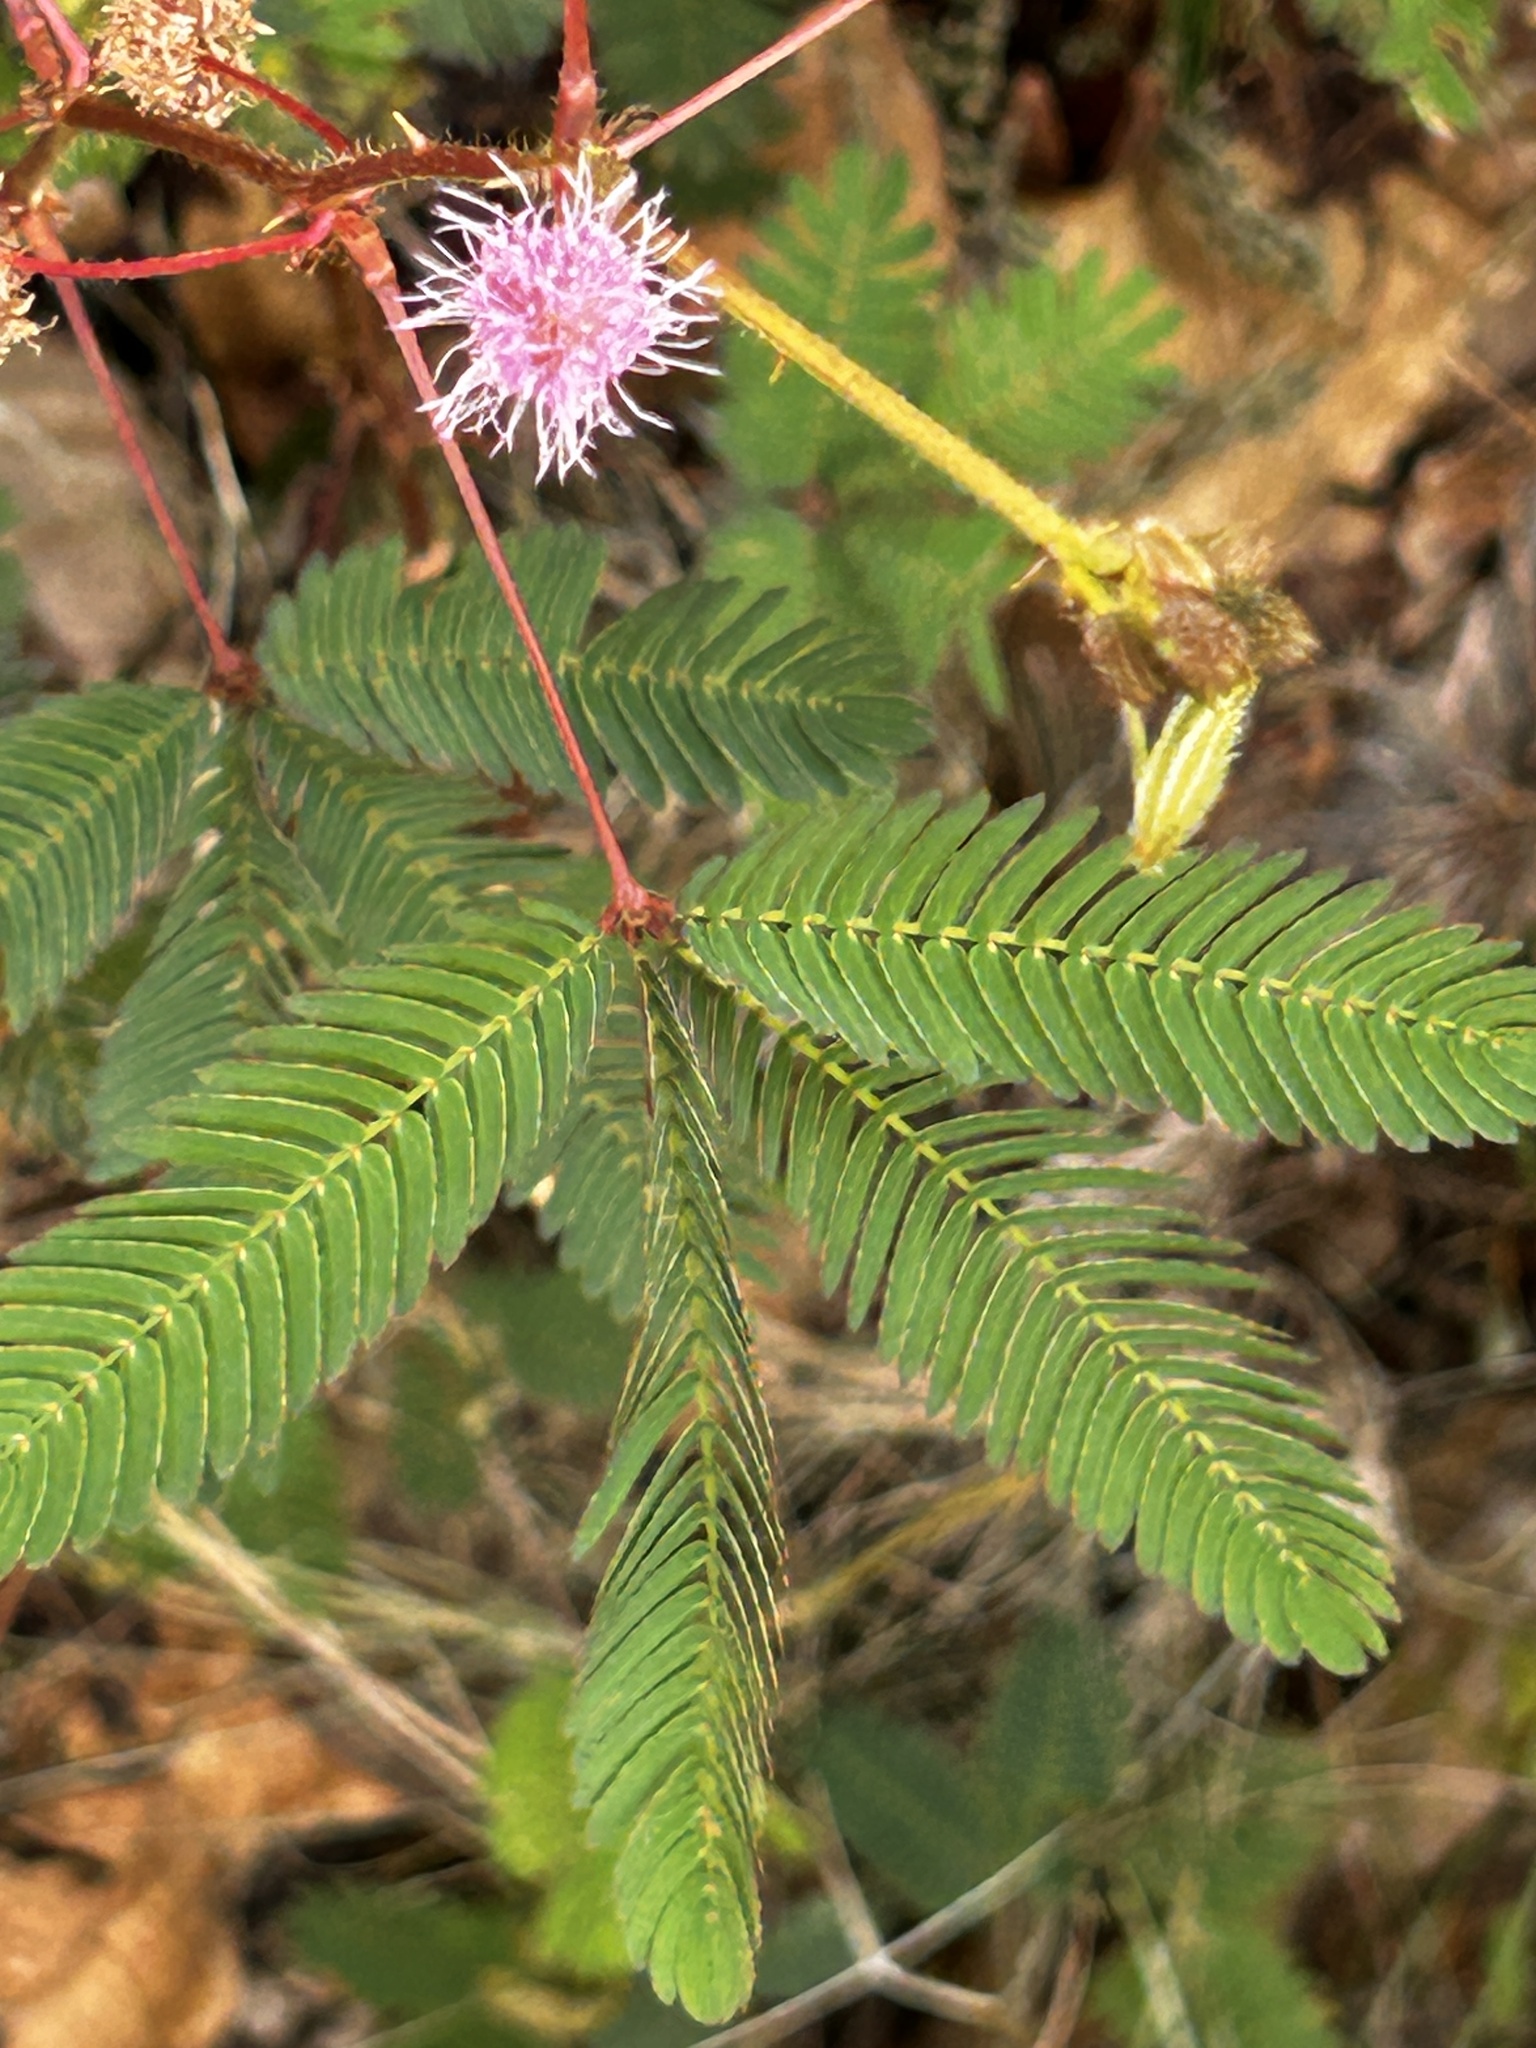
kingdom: Plantae
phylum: Tracheophyta
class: Magnoliopsida
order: Fabales
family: Fabaceae
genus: Mimosa
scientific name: Mimosa pudica
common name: Sensitive plant
